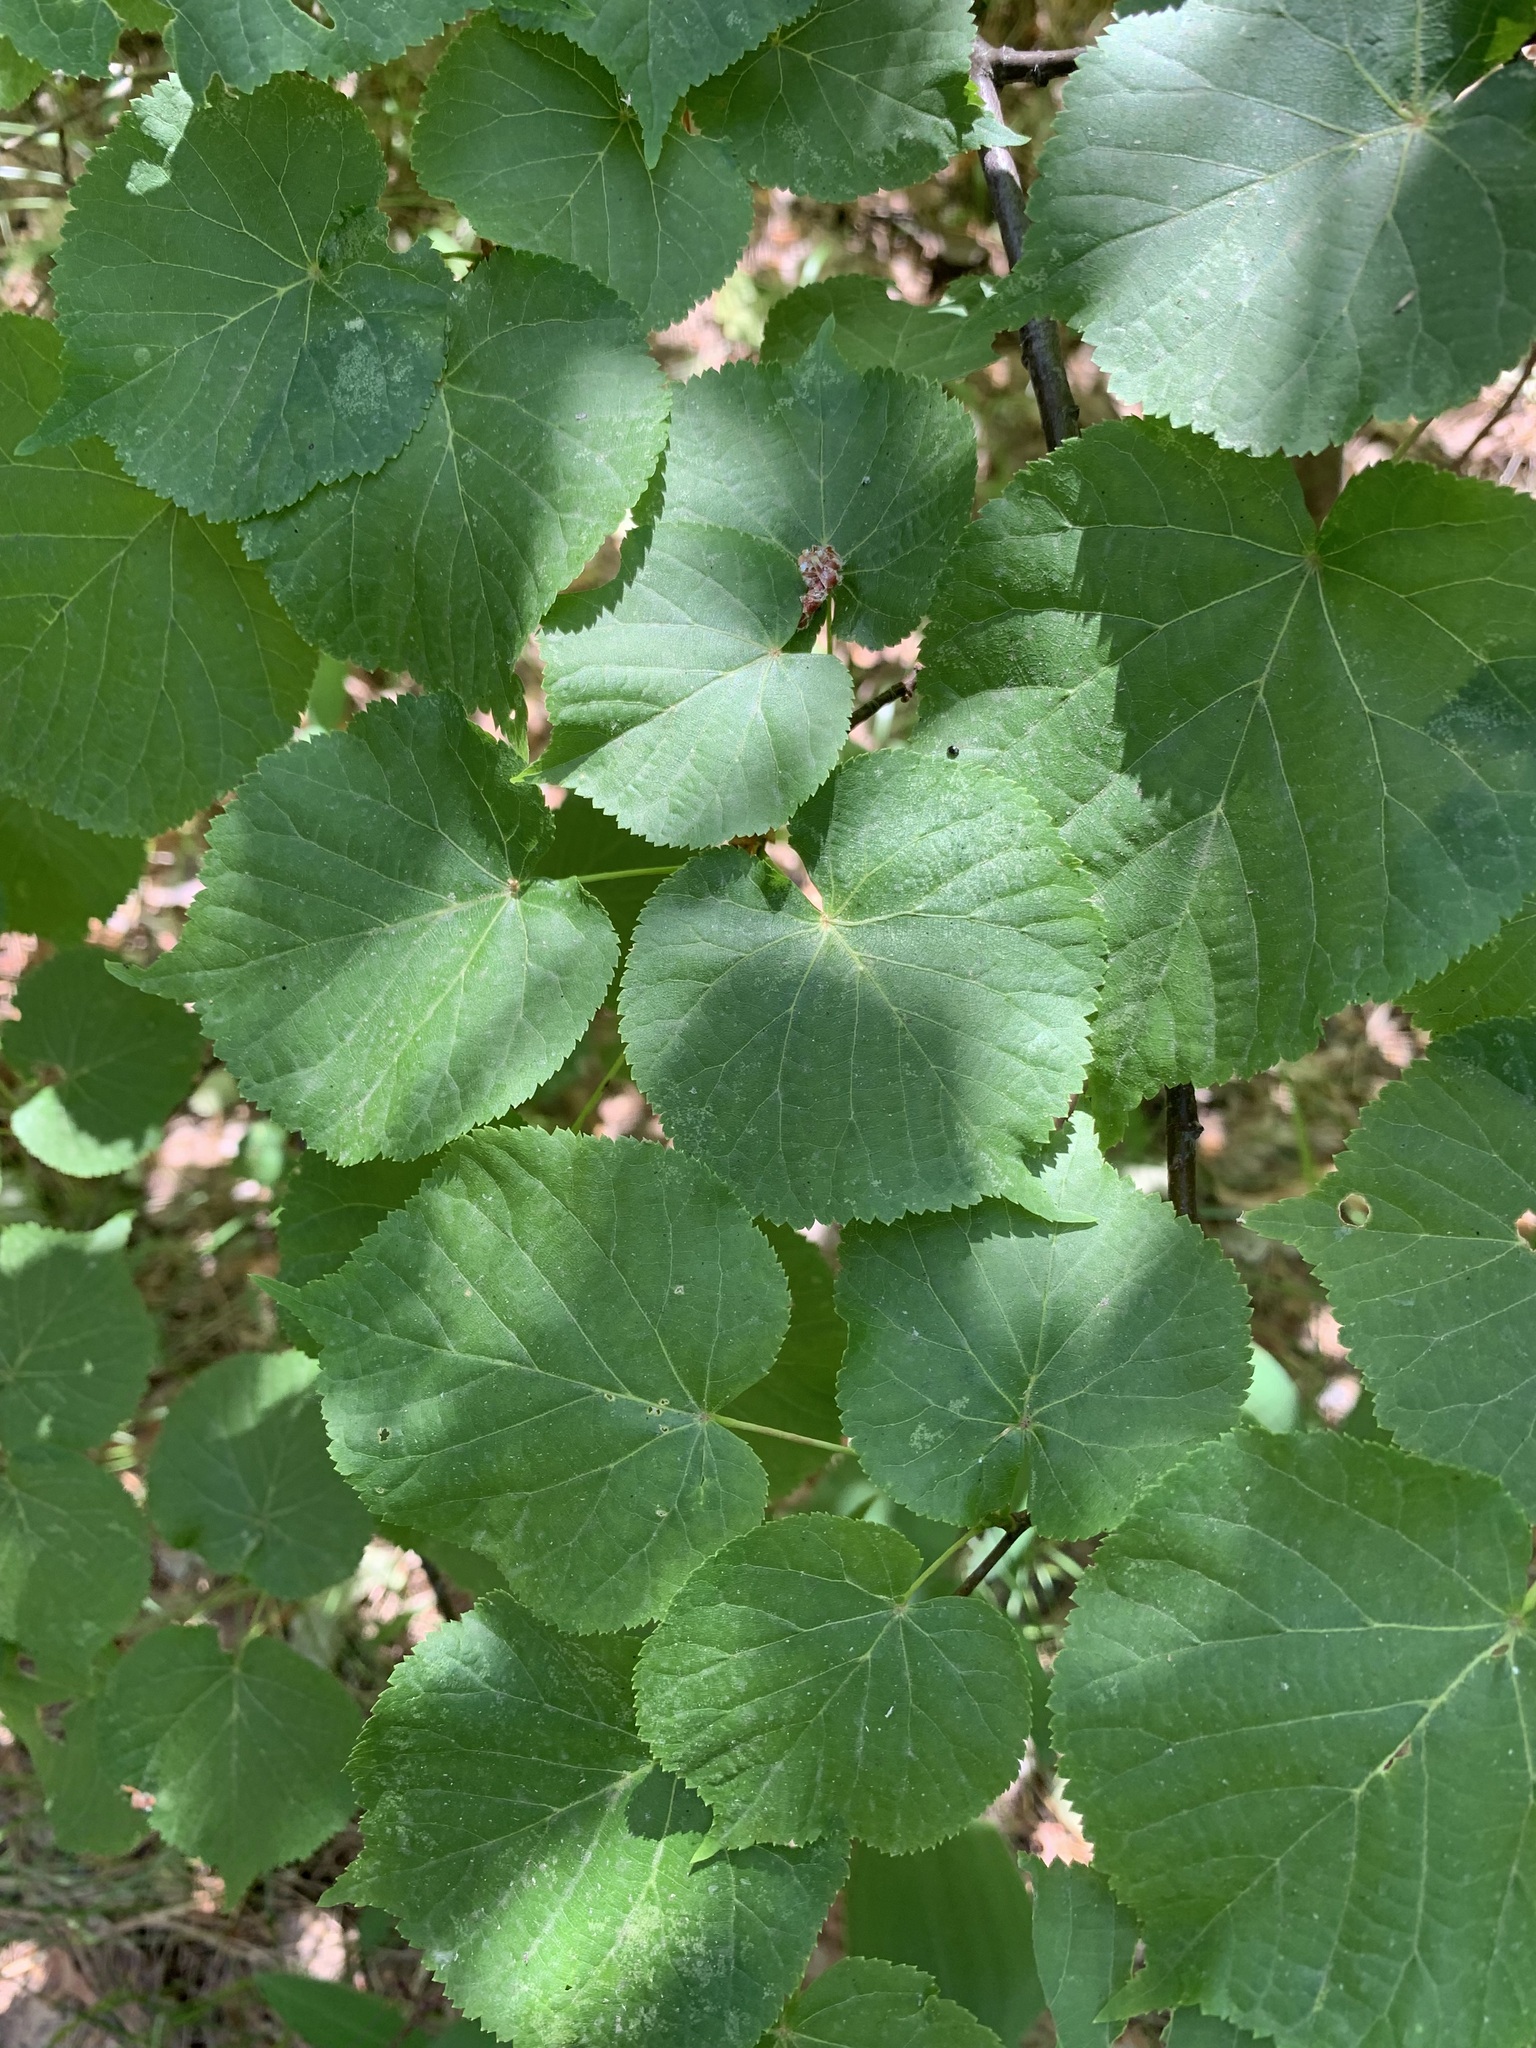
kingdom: Plantae
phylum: Tracheophyta
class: Magnoliopsida
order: Malvales
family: Malvaceae
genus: Tilia
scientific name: Tilia cordata
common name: Small-leaved lime
